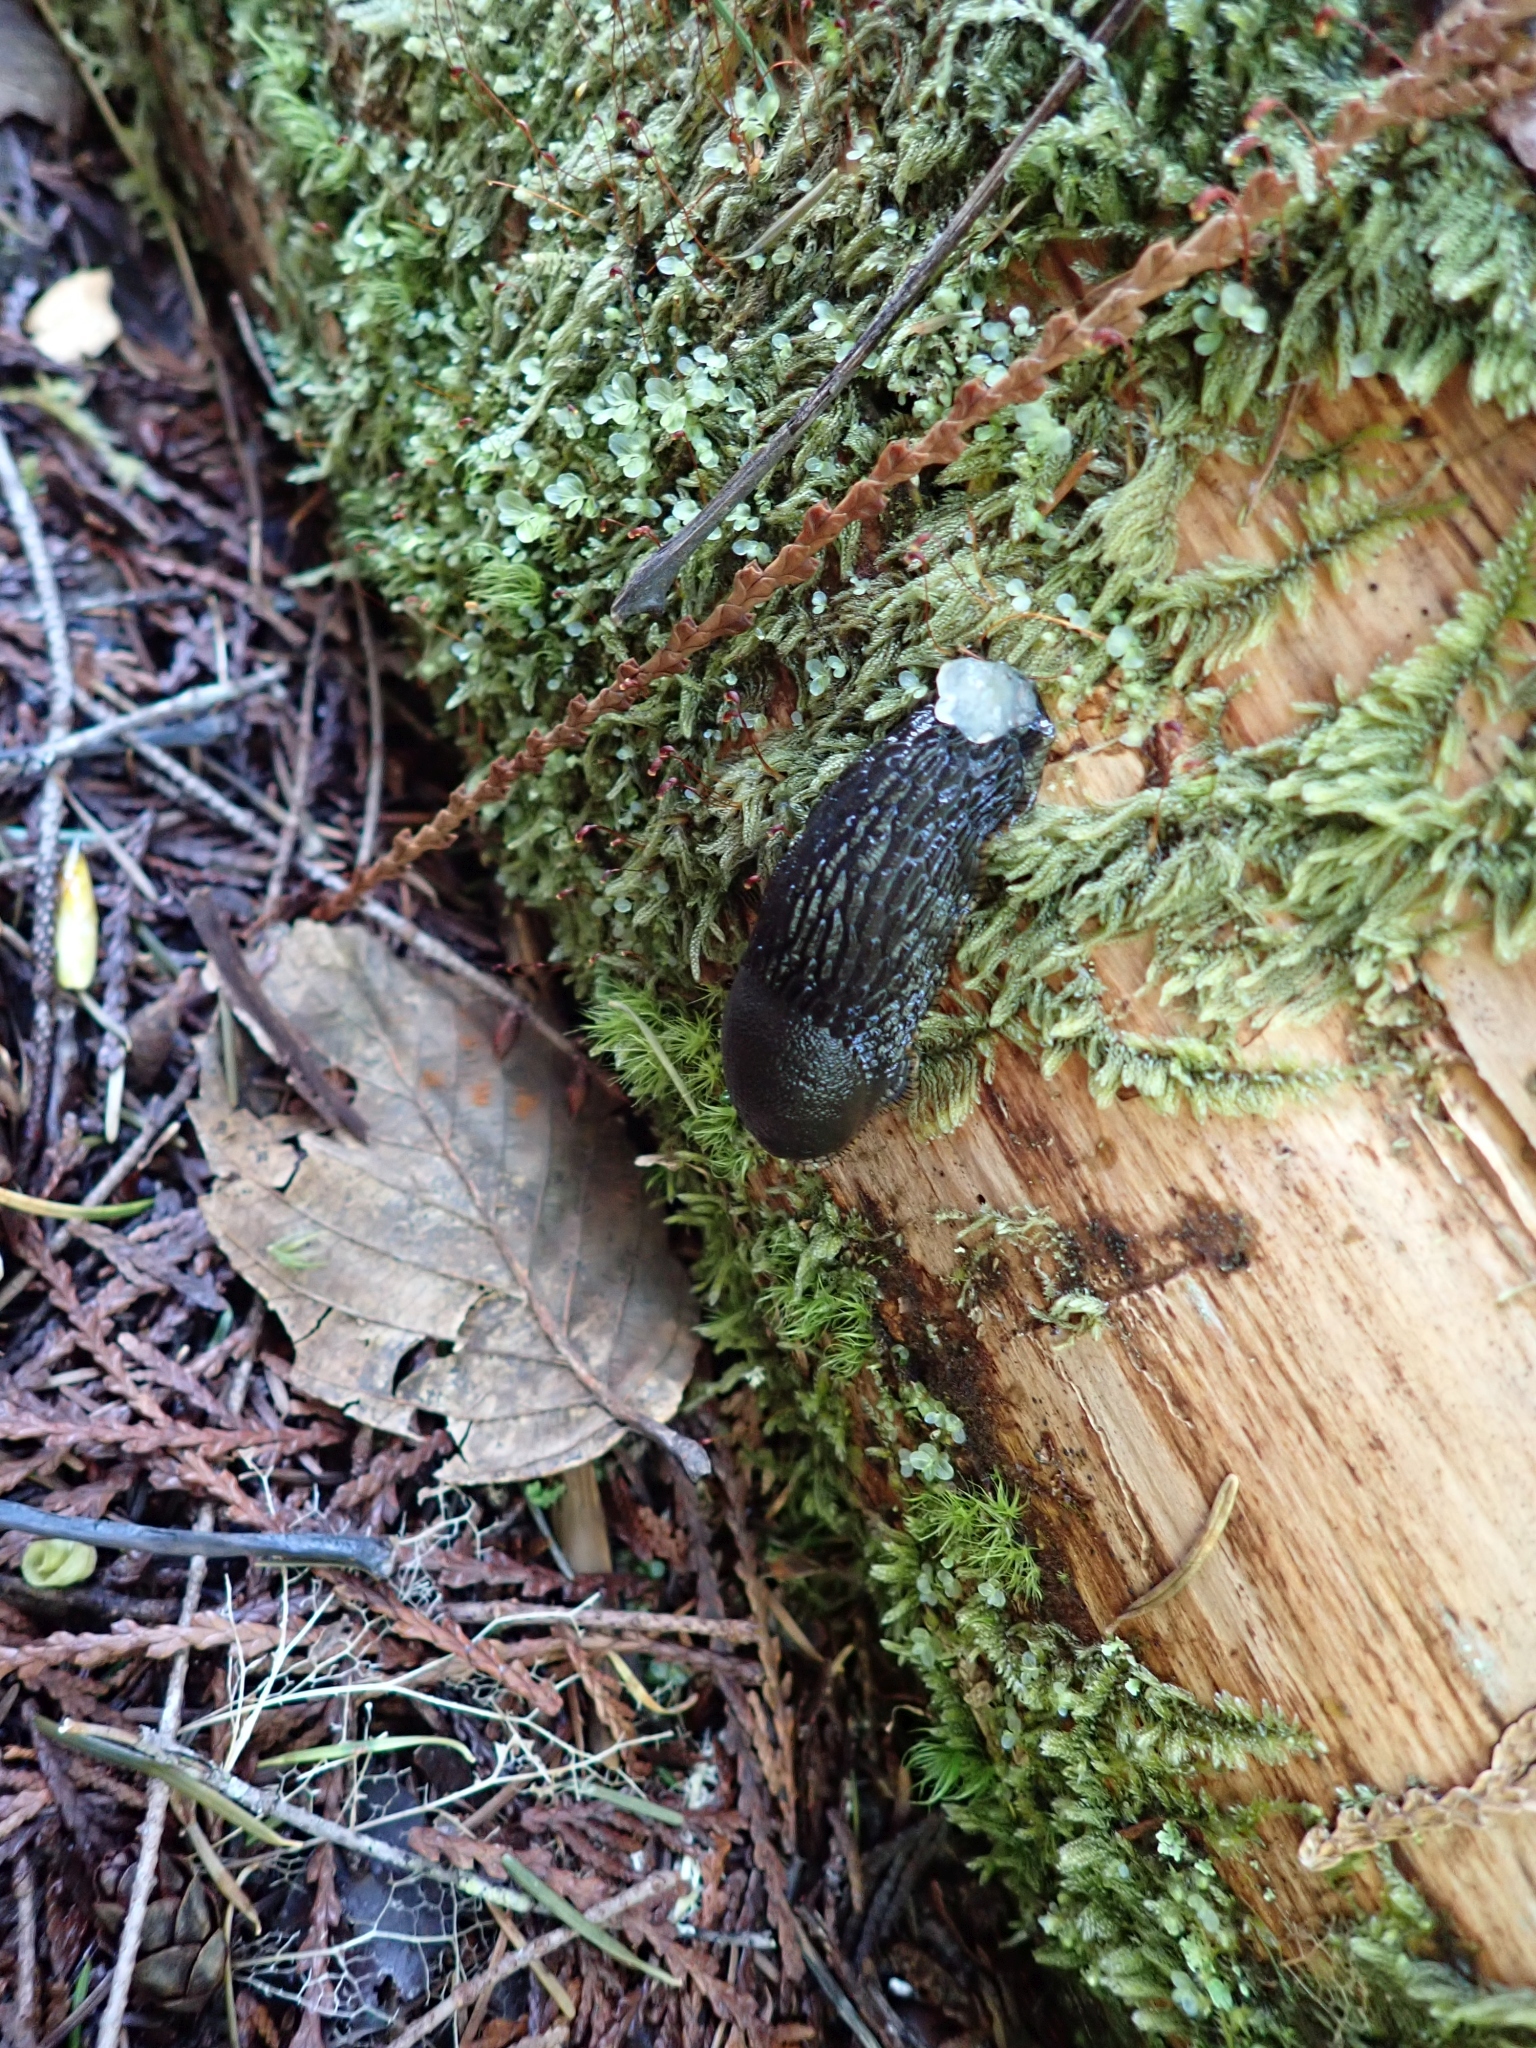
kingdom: Animalia
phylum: Mollusca
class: Gastropoda
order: Stylommatophora
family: Arionidae
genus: Arion
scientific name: Arion
